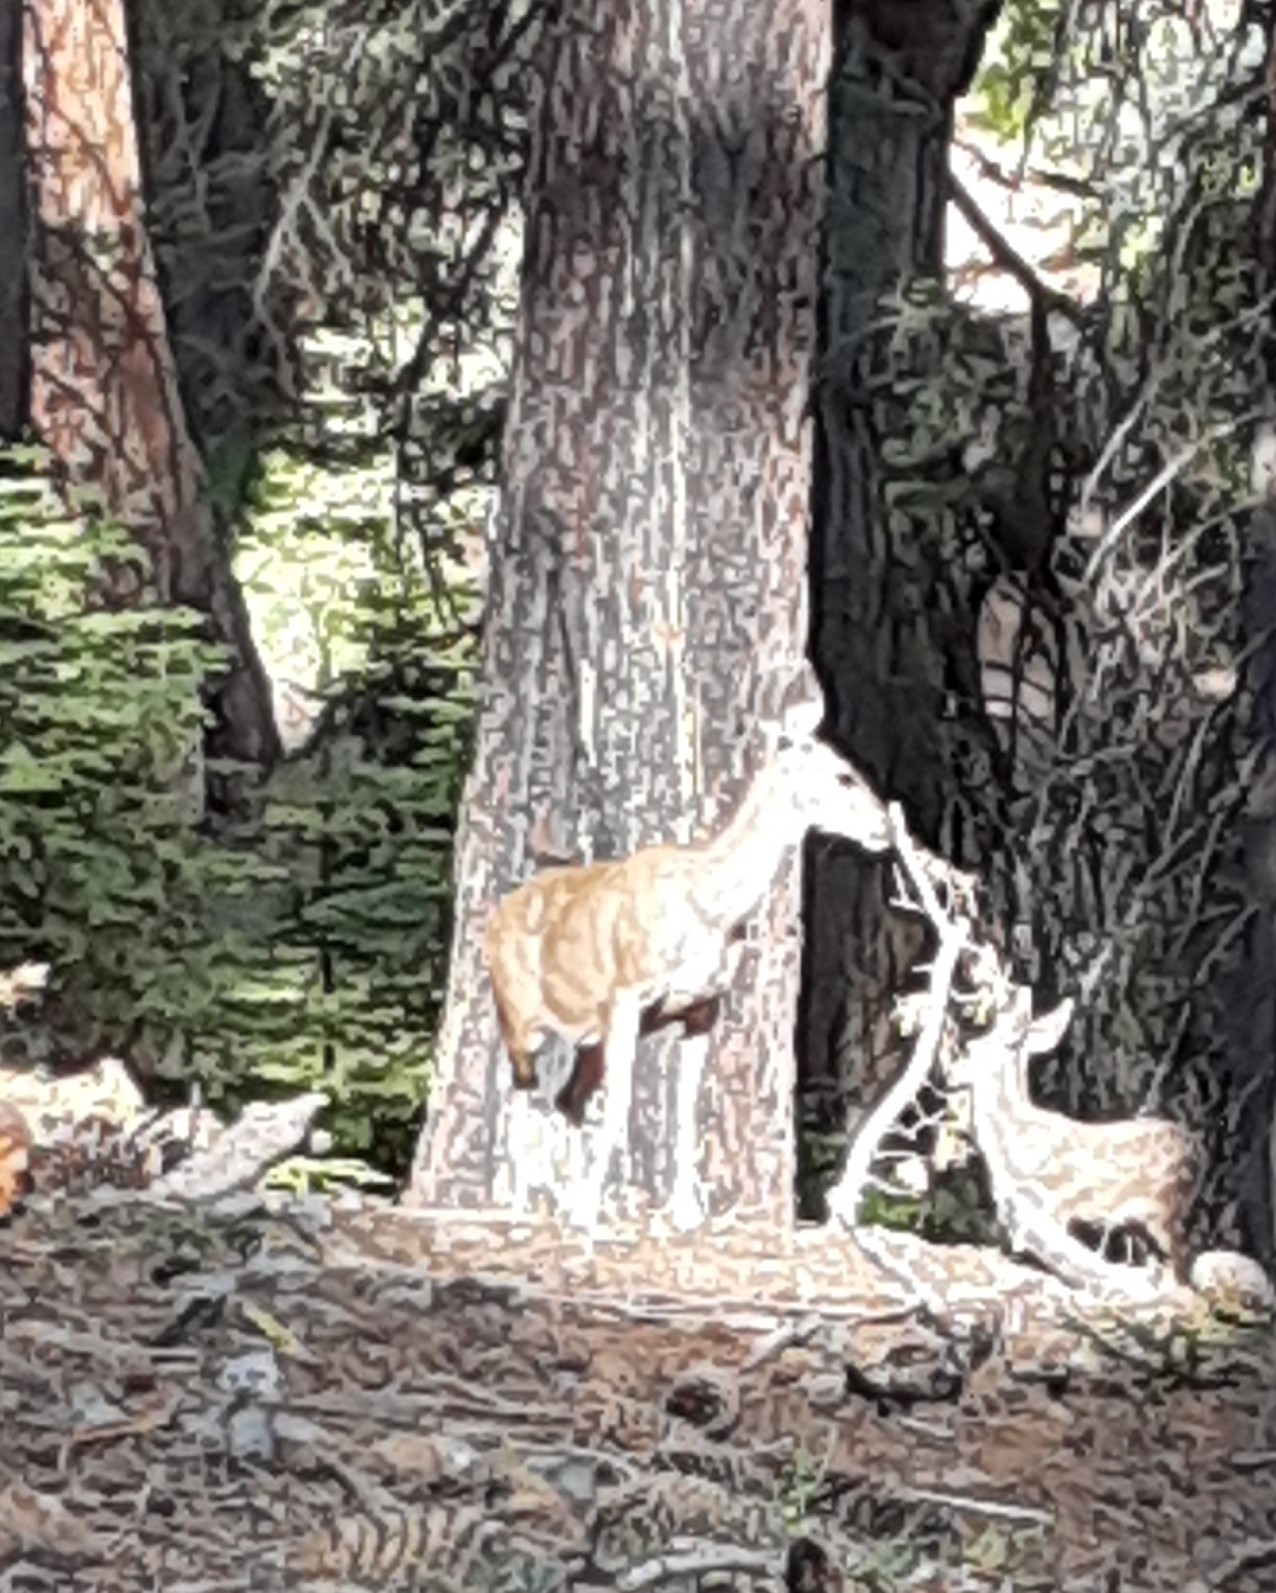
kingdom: Animalia
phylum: Chordata
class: Mammalia
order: Artiodactyla
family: Cervidae
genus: Odocoileus
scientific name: Odocoileus hemionus
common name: Mule deer
